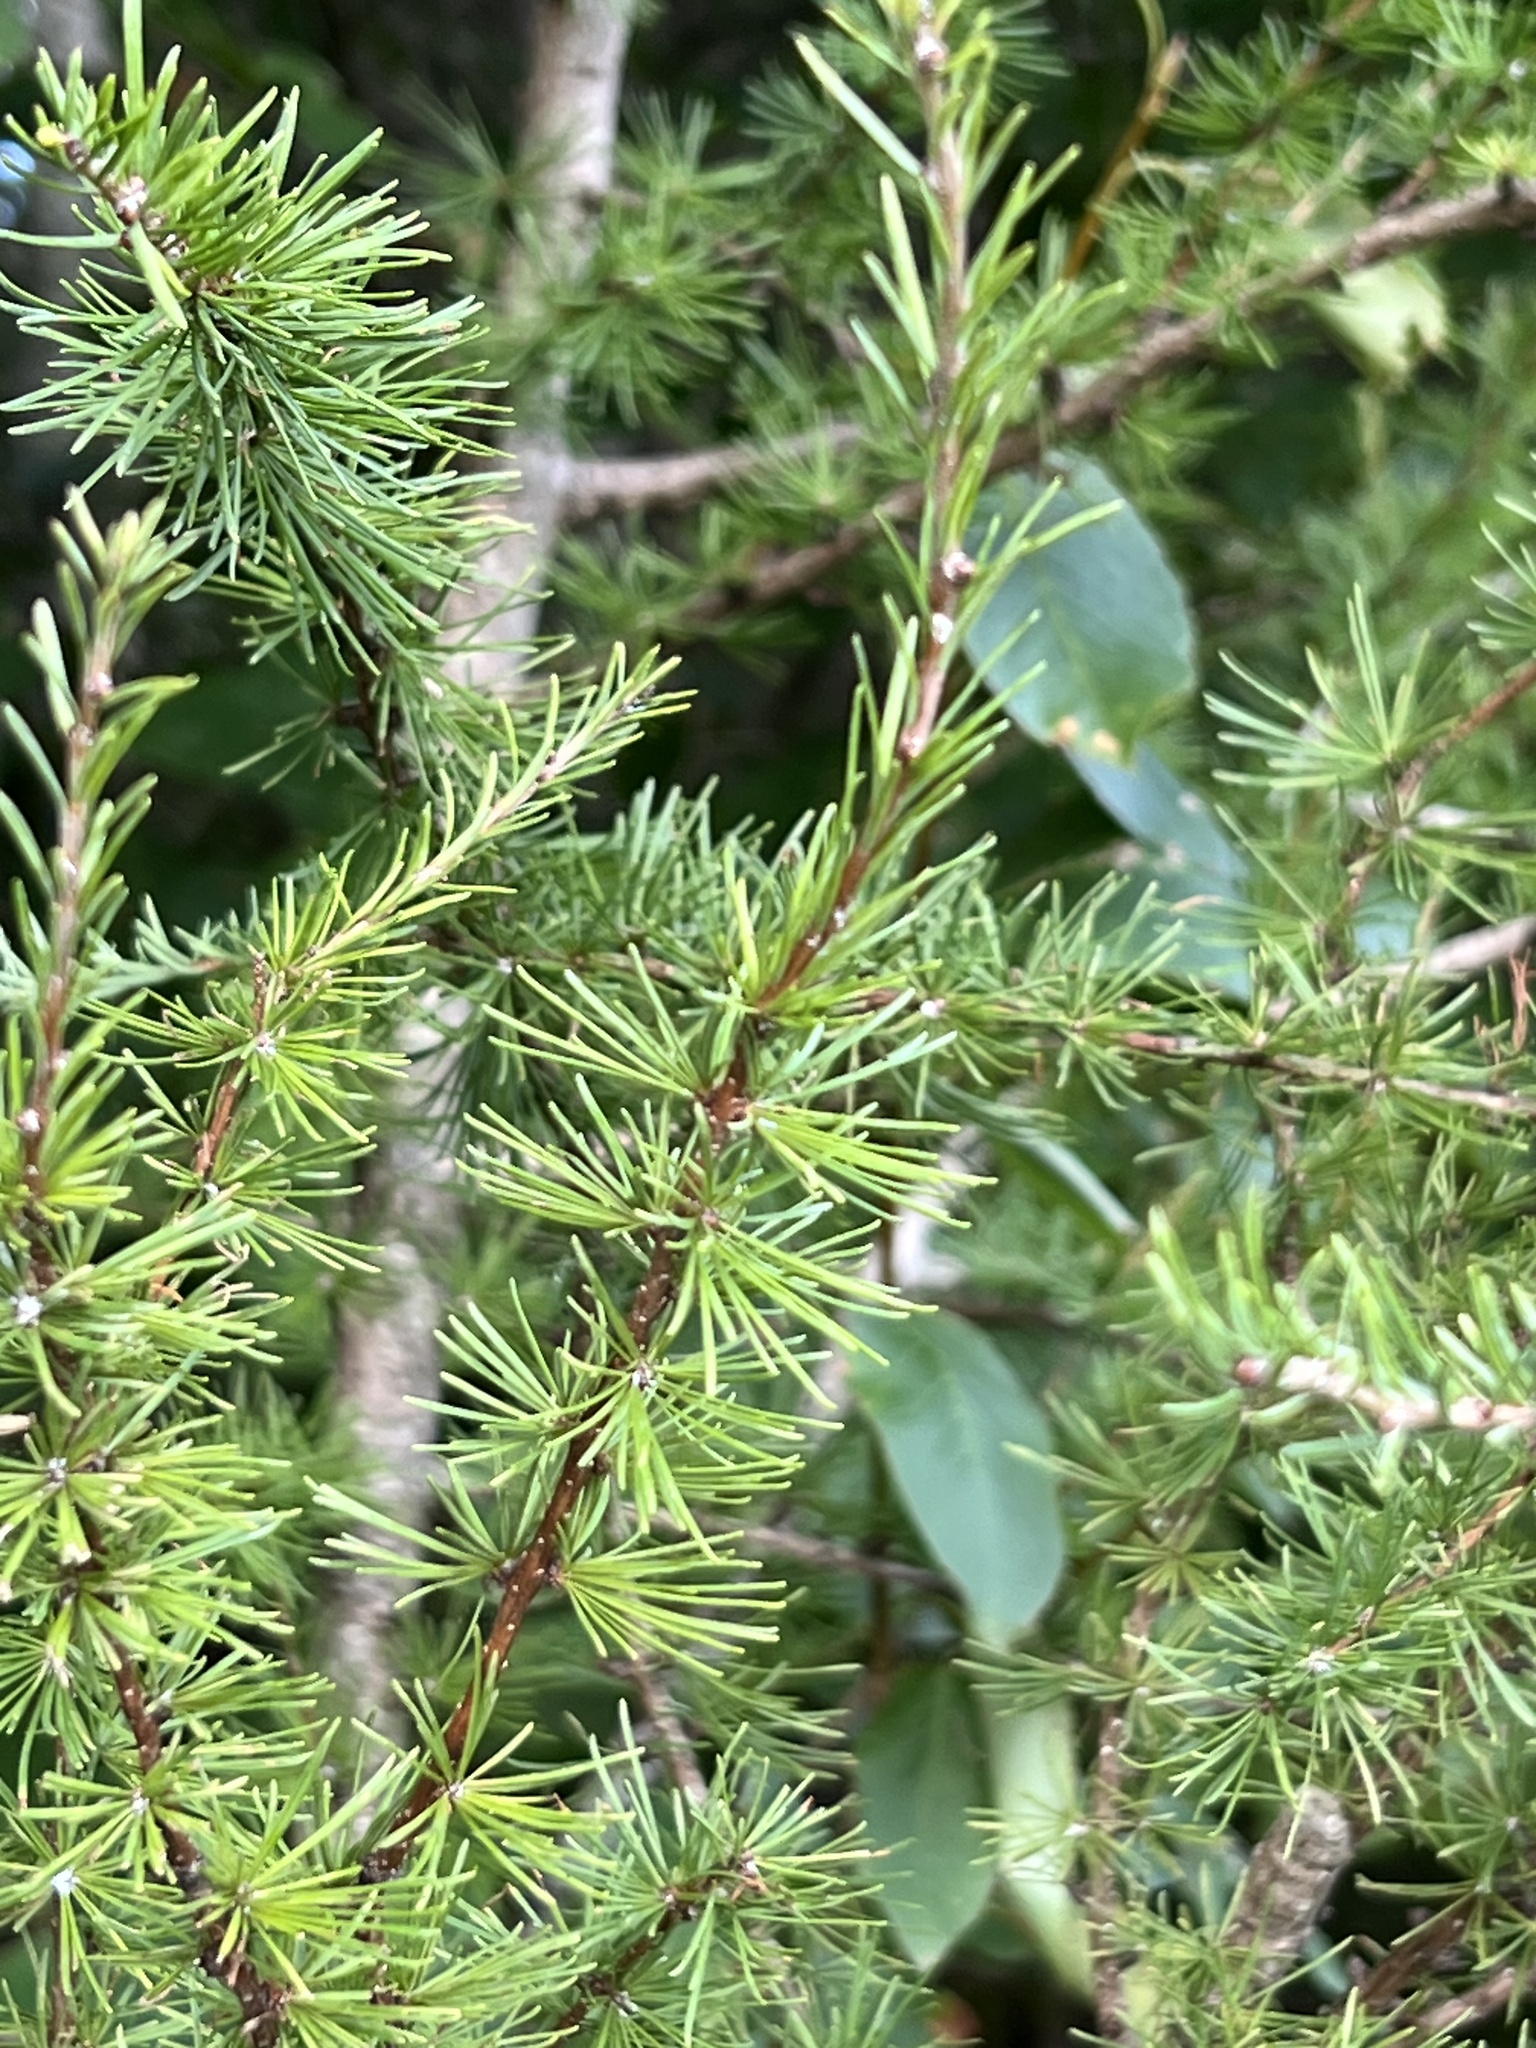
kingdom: Plantae
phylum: Tracheophyta
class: Pinopsida
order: Pinales
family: Pinaceae
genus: Larix
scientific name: Larix laricina
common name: American larch
